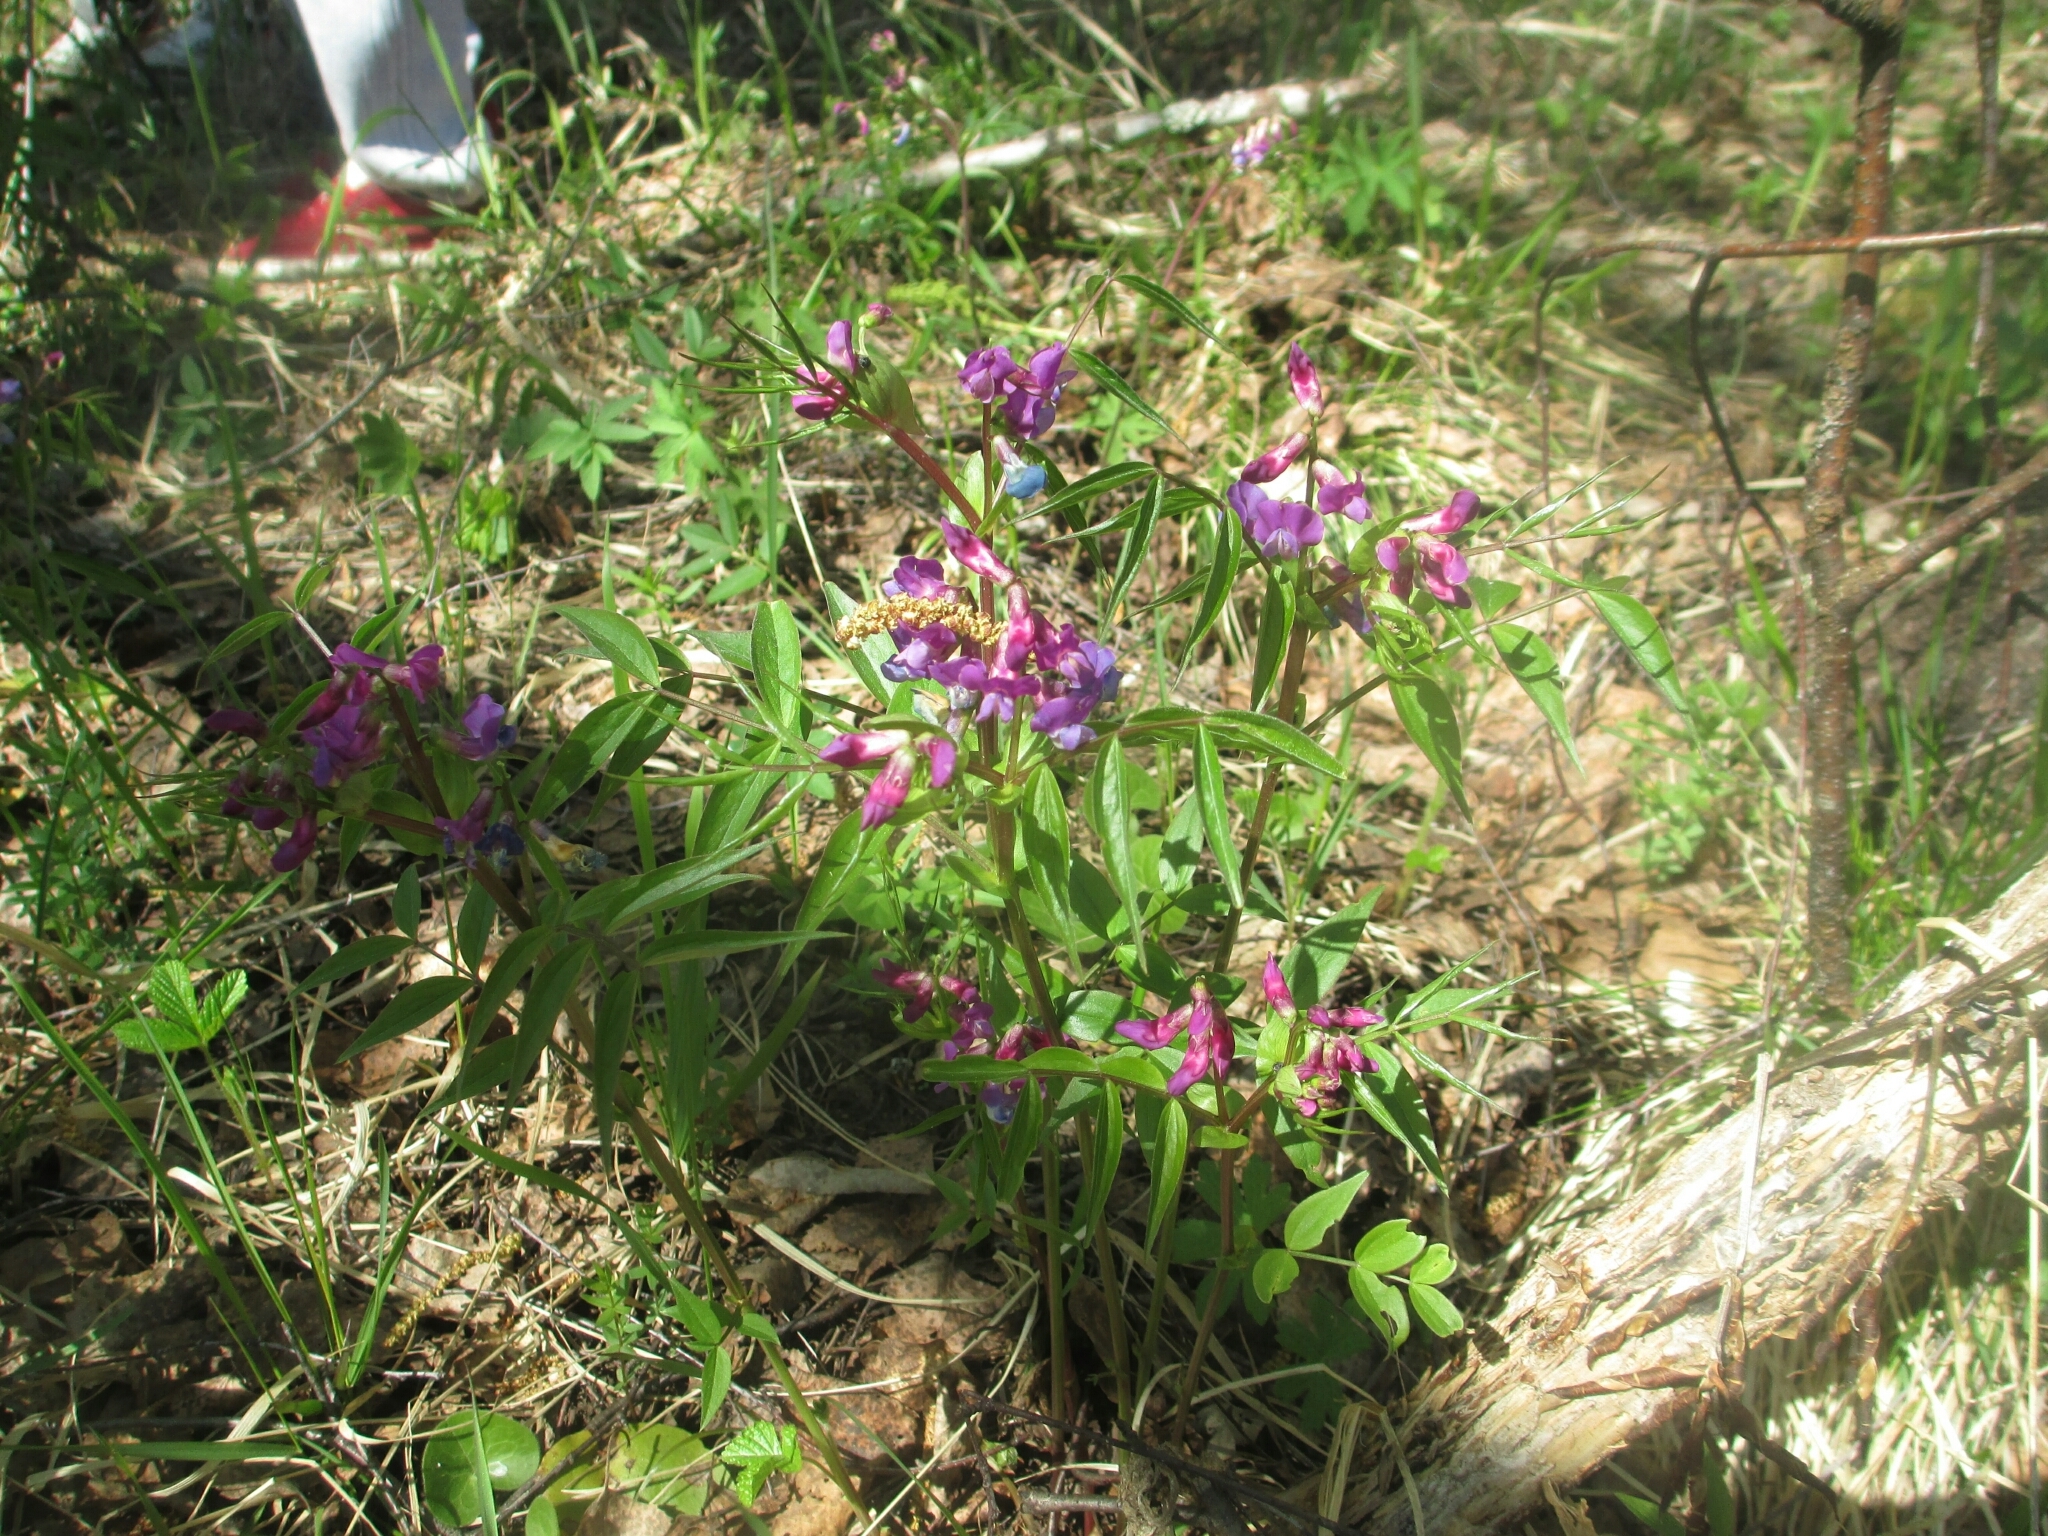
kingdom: Plantae
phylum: Tracheophyta
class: Magnoliopsida
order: Fabales
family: Fabaceae
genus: Lathyrus
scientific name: Lathyrus vernus
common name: Spring pea
